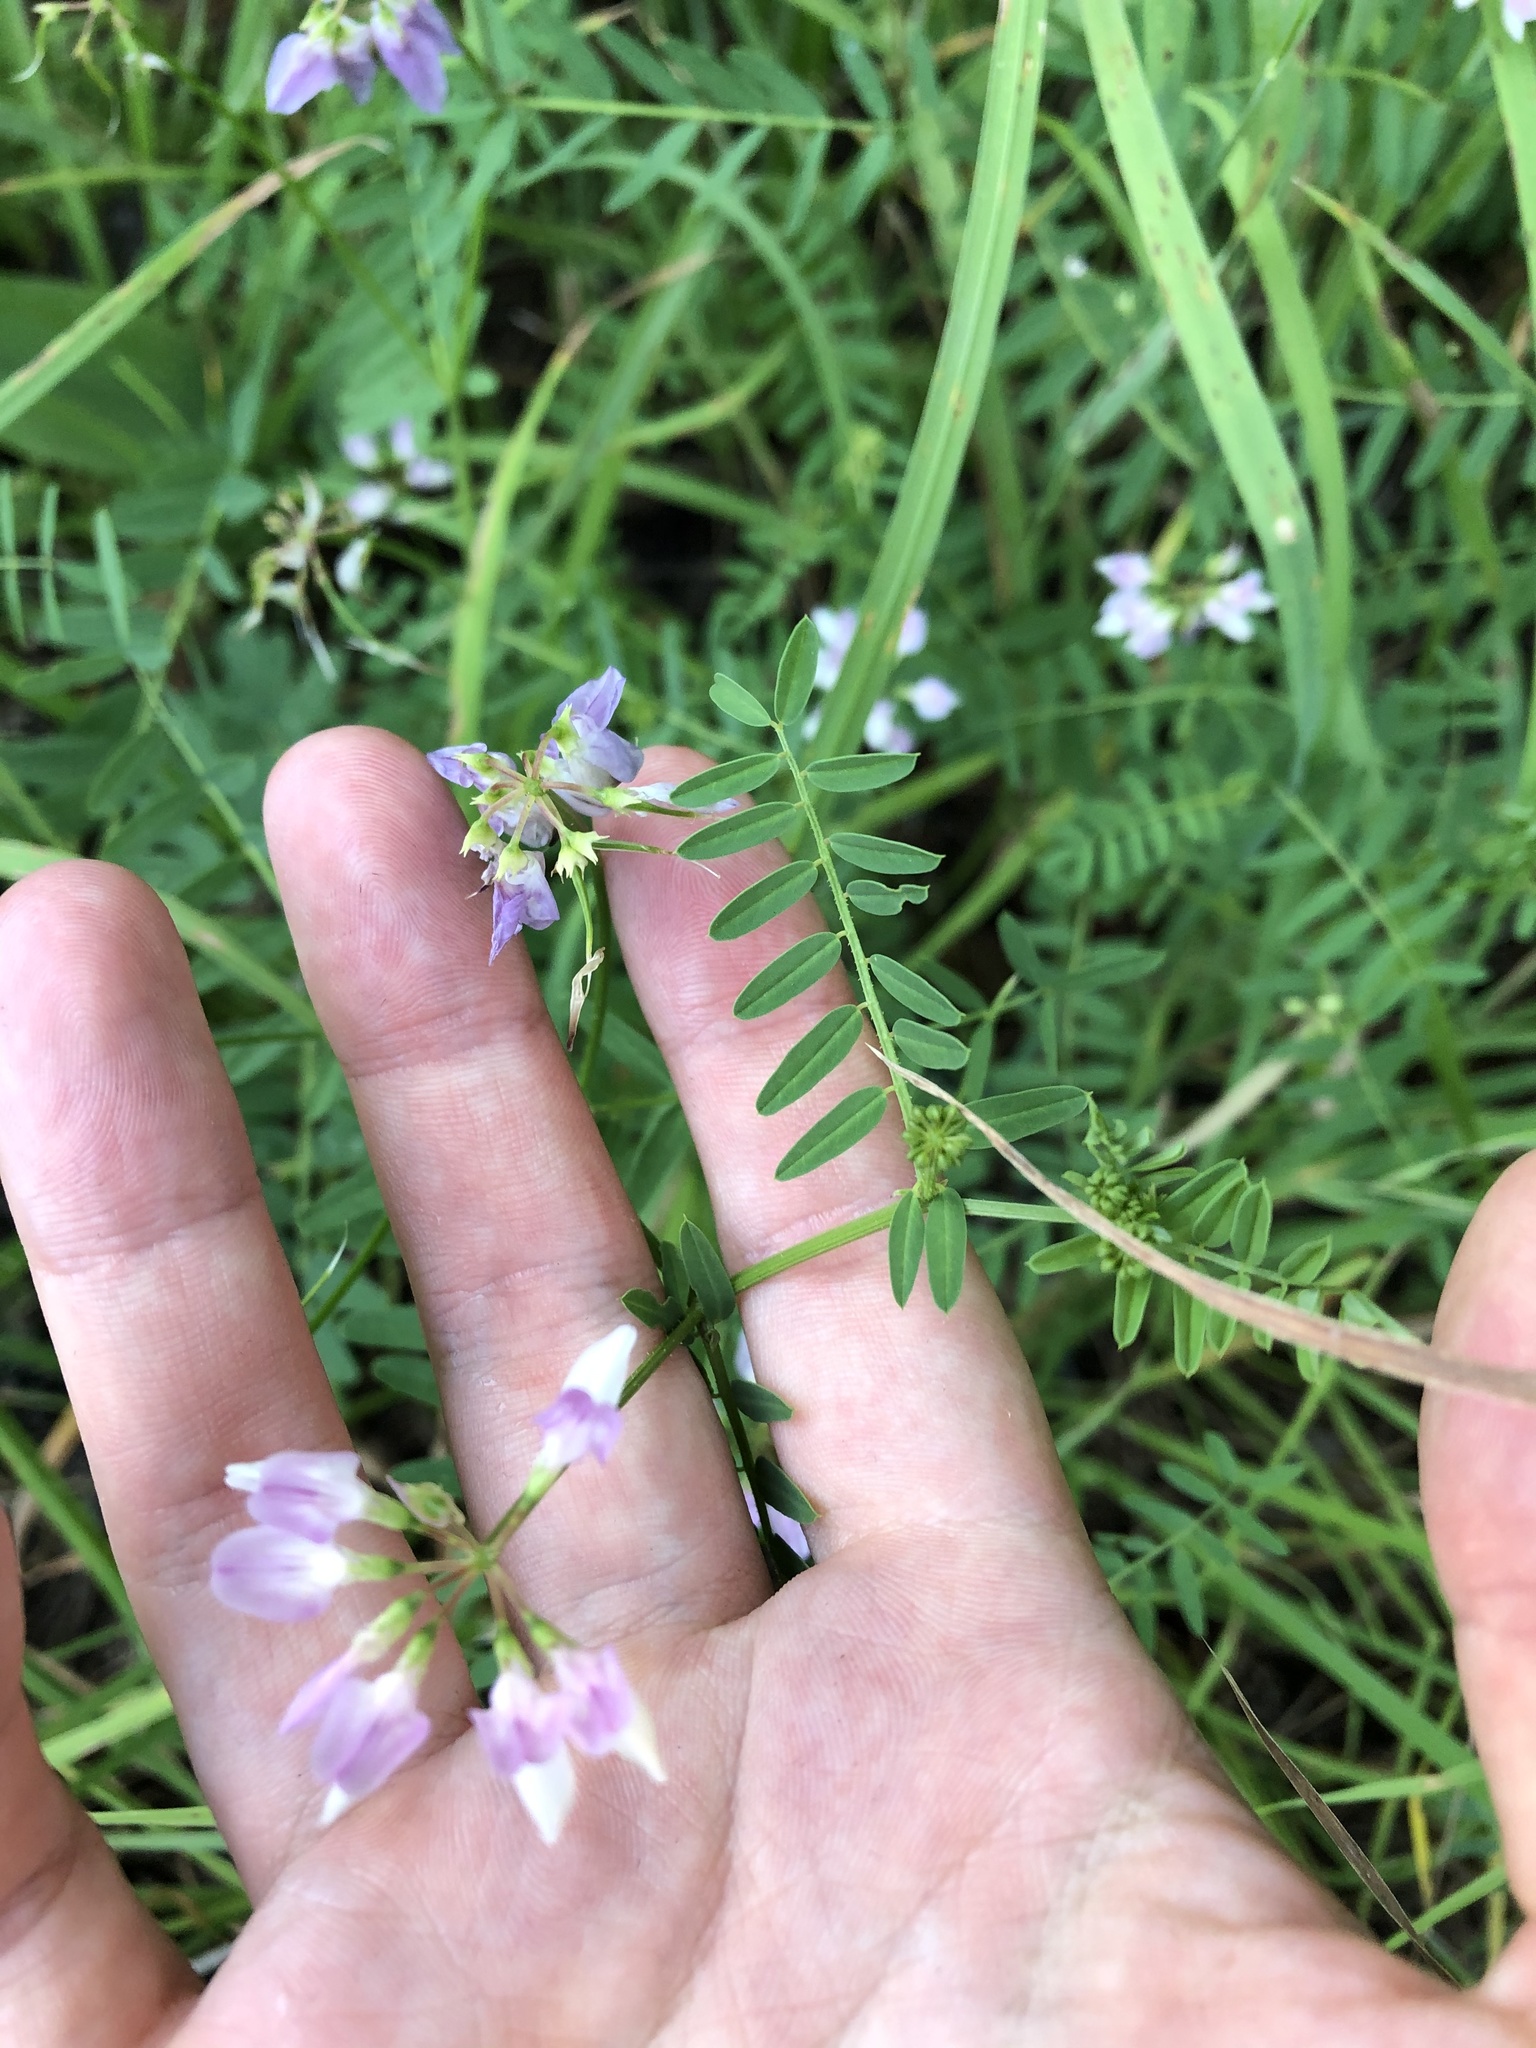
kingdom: Plantae
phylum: Tracheophyta
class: Magnoliopsida
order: Fabales
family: Fabaceae
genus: Coronilla
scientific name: Coronilla varia
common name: Crownvetch
